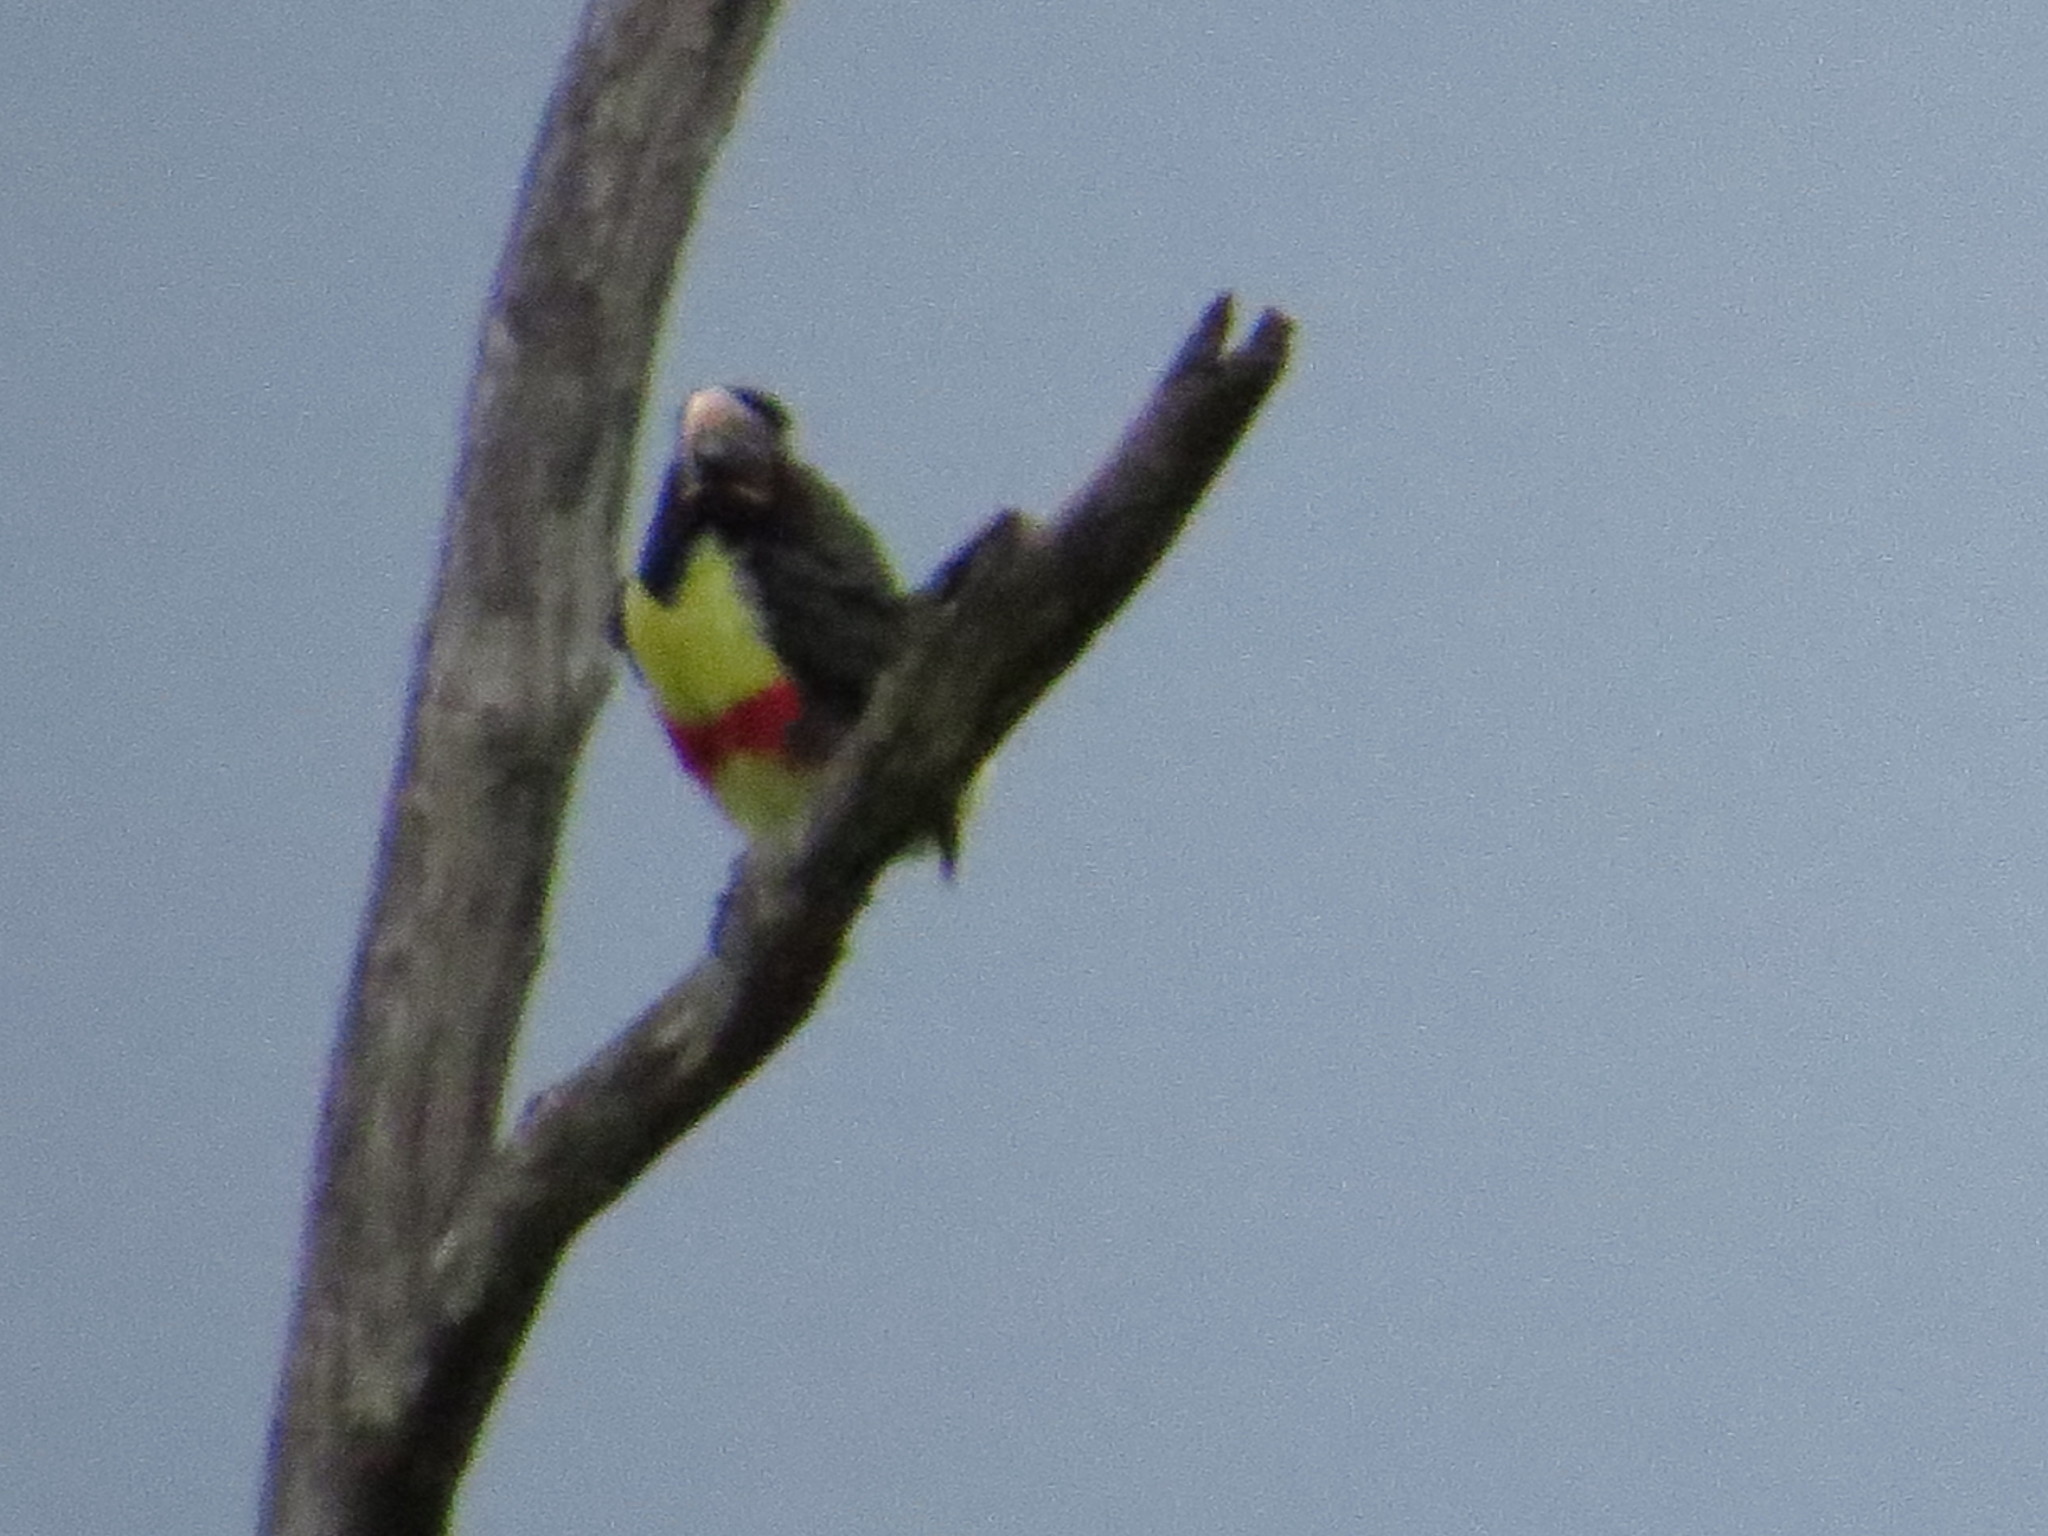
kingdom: Animalia
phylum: Chordata
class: Aves
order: Piciformes
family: Ramphastidae
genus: Pteroglossus
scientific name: Pteroglossus castanotis
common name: Chestnut-eared aracari
